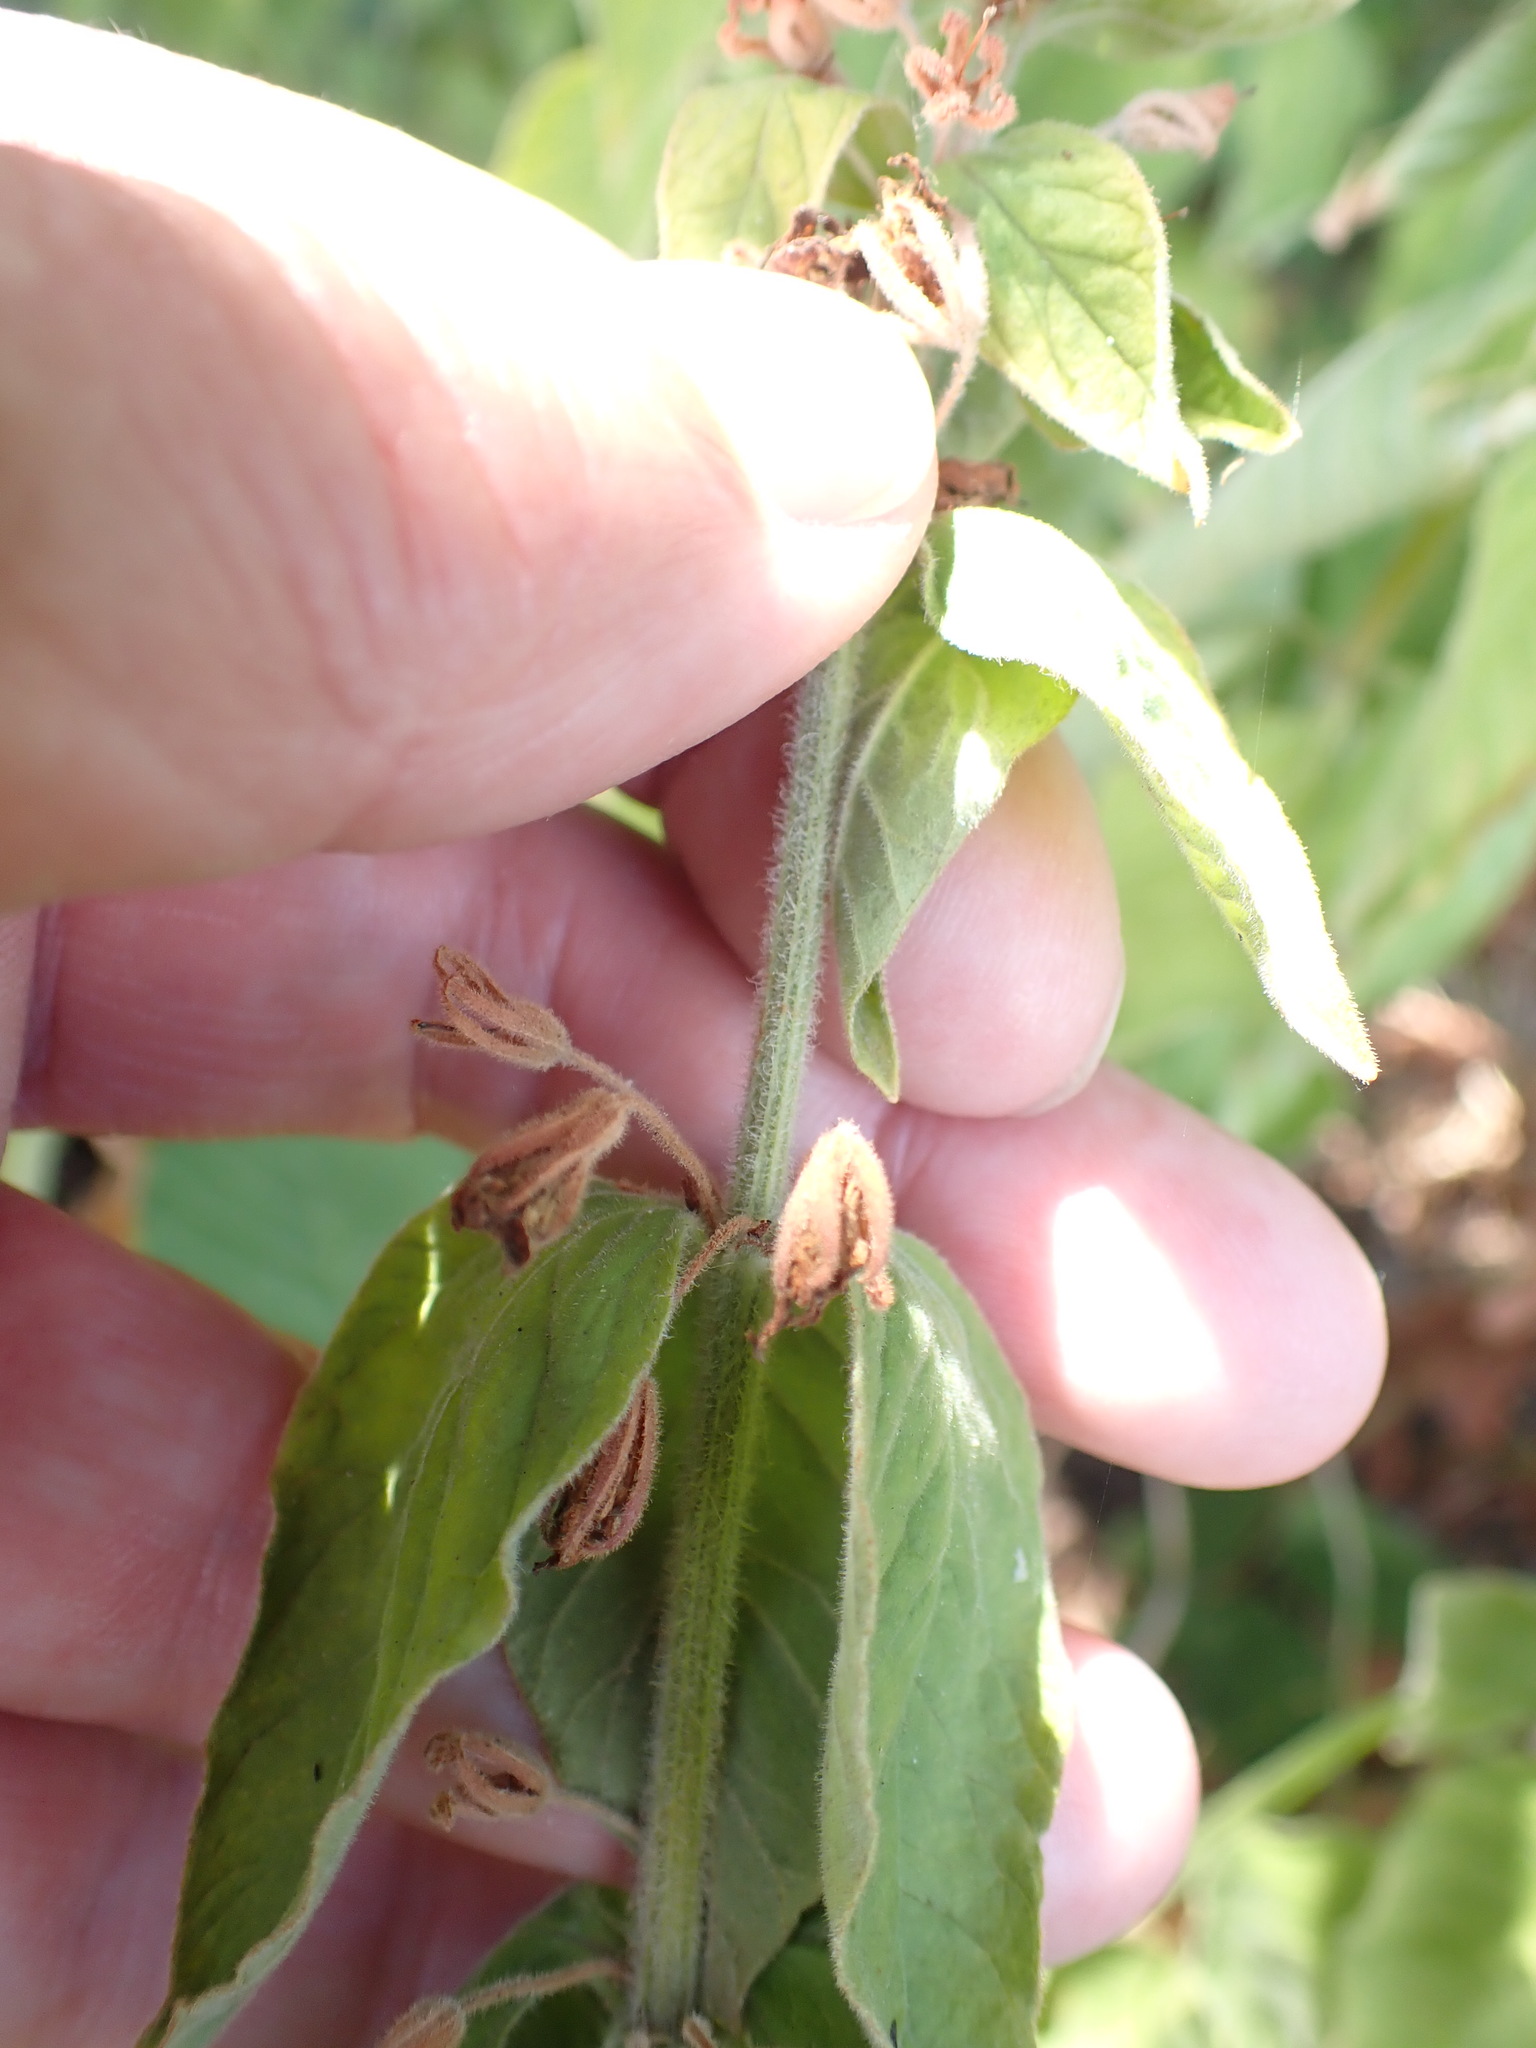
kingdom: Plantae
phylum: Tracheophyta
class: Magnoliopsida
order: Ericales
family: Primulaceae
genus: Lysimachia
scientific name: Lysimachia punctata
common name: Dotted loosestrife
